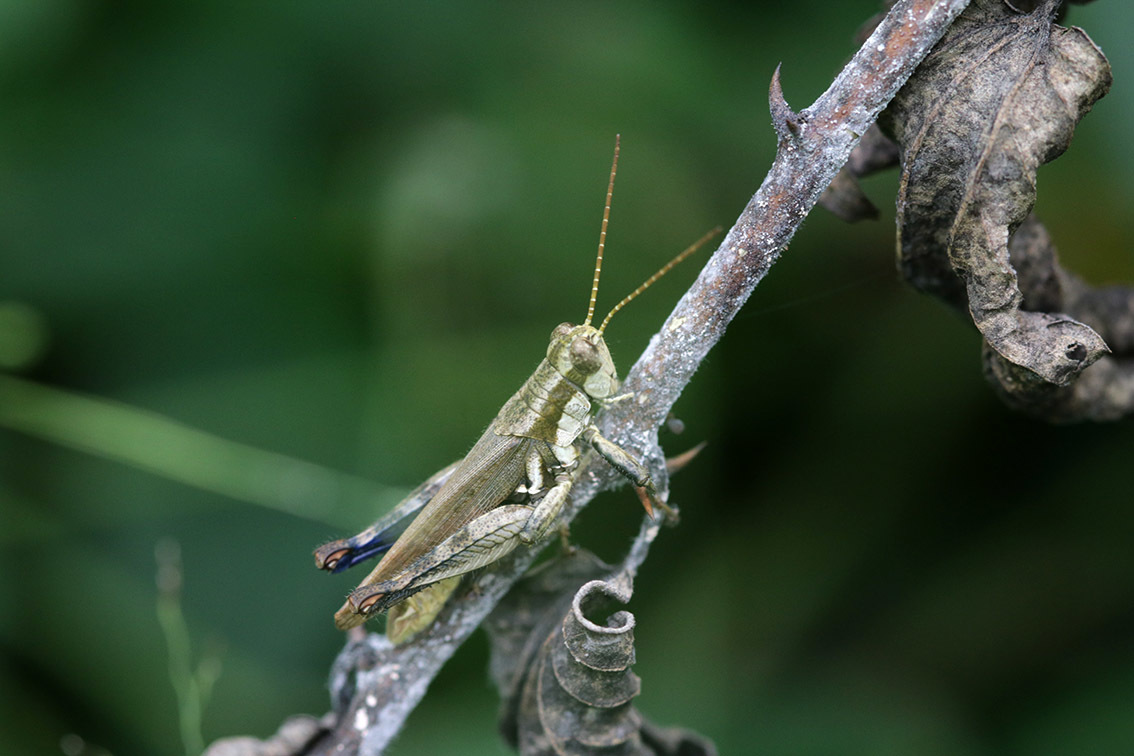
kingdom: Animalia
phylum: Arthropoda
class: Insecta
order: Orthoptera
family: Acrididae
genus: Ronderosia
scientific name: Ronderosia bergii
